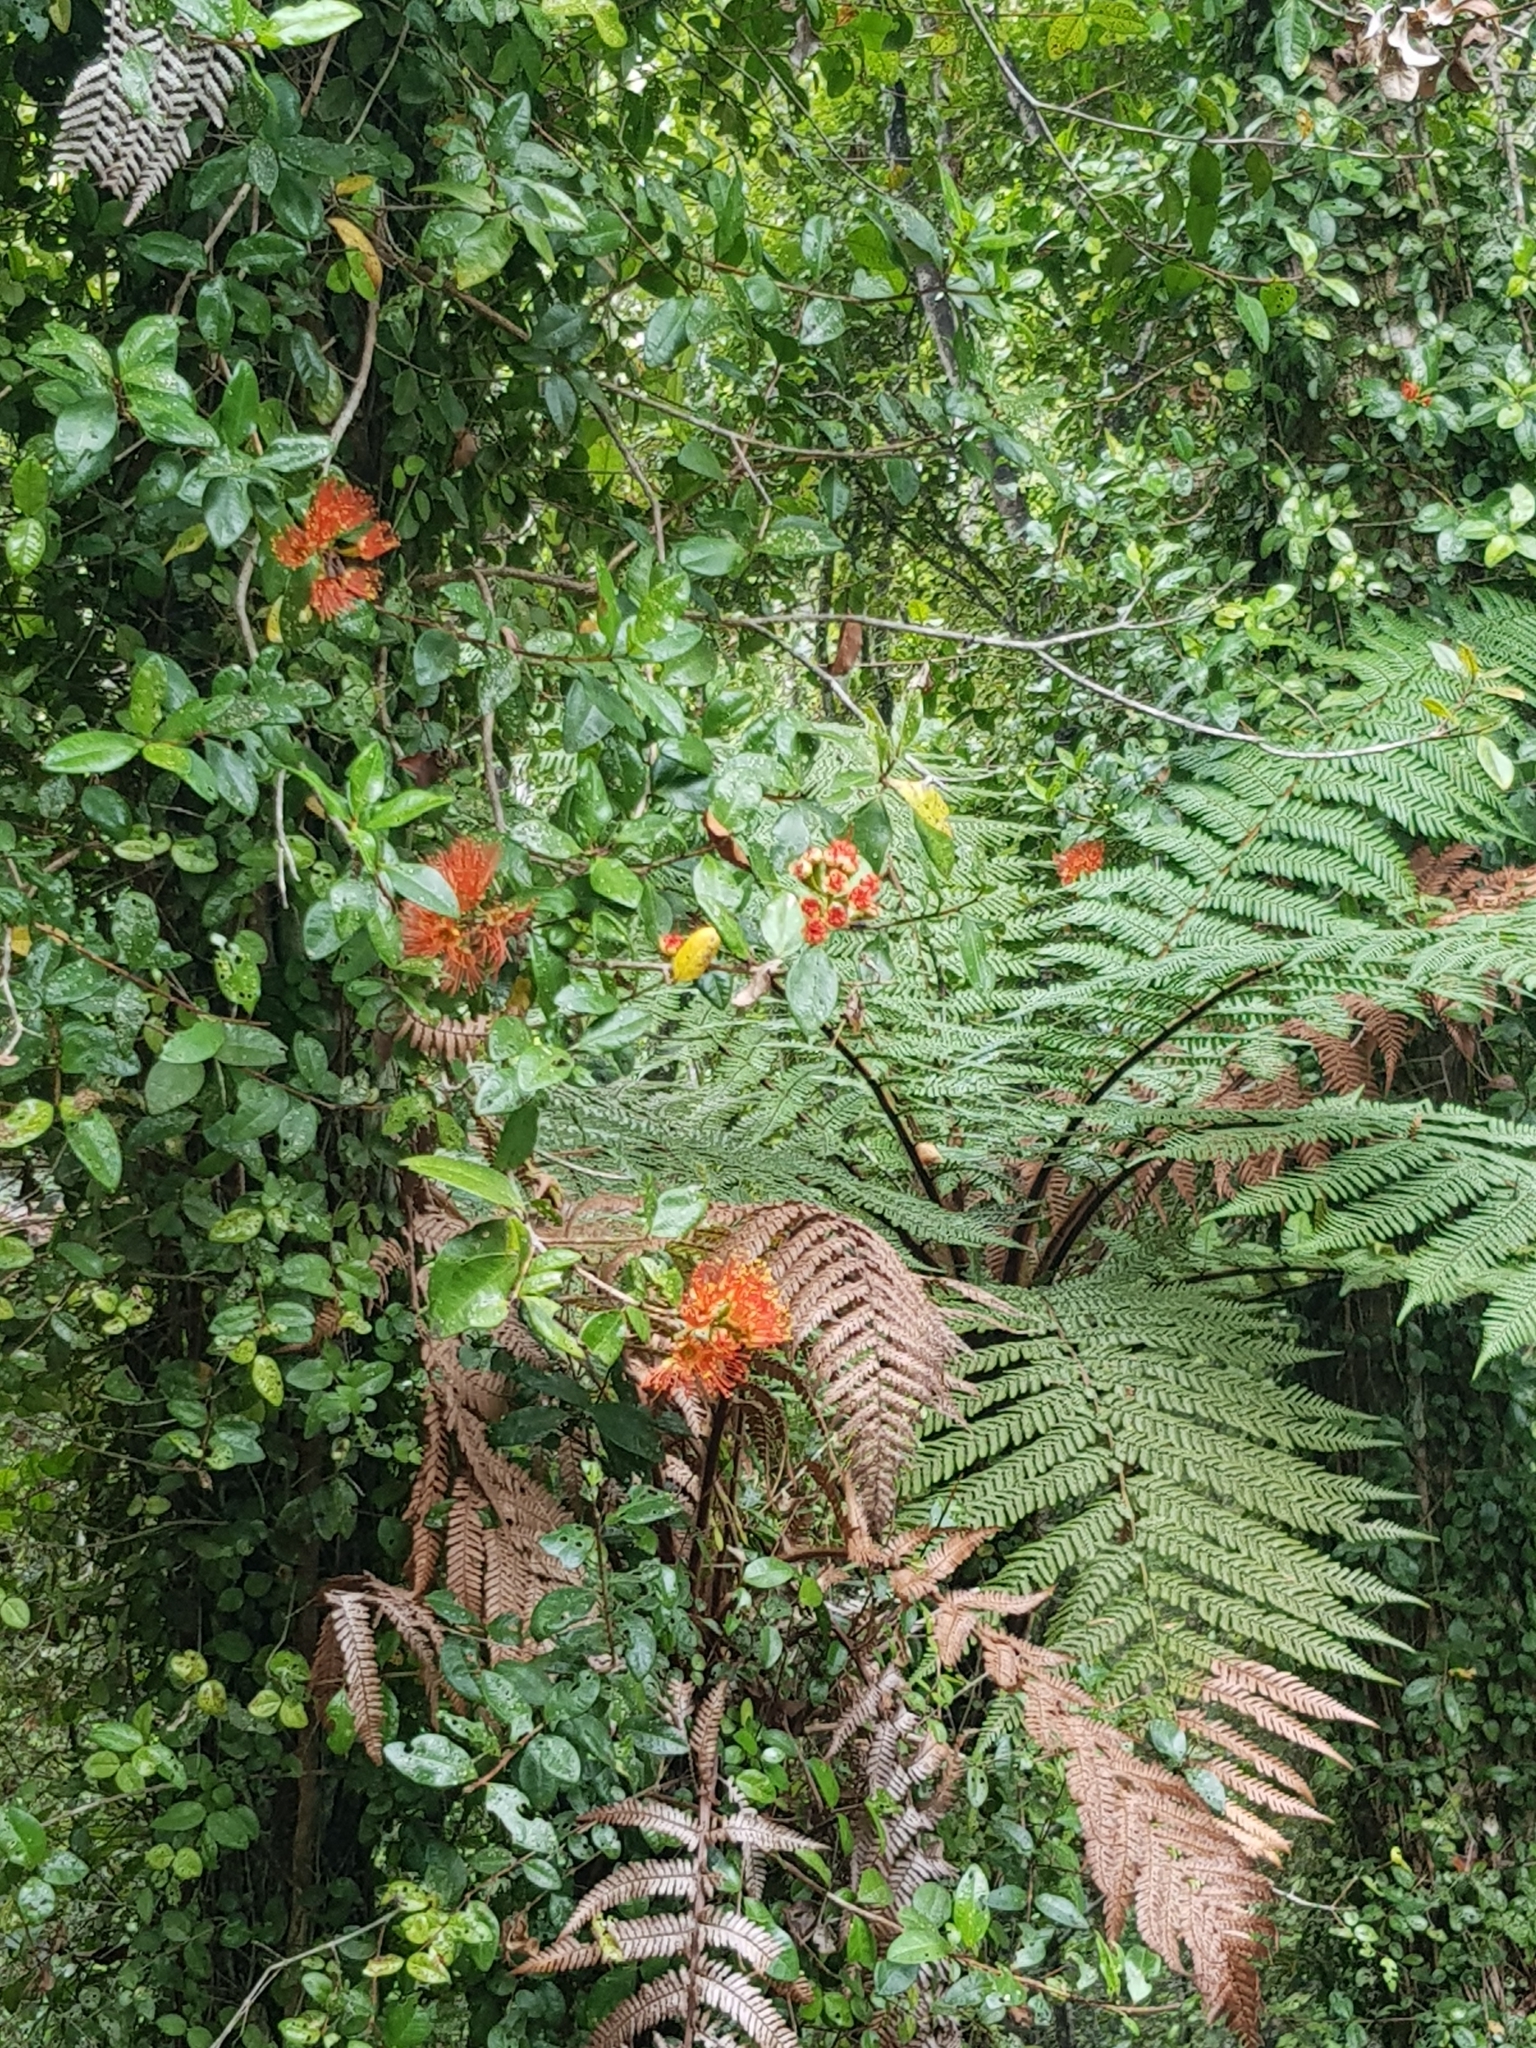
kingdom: Plantae
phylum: Tracheophyta
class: Magnoliopsida
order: Myrtales
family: Myrtaceae
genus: Metrosideros
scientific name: Metrosideros fulgens
